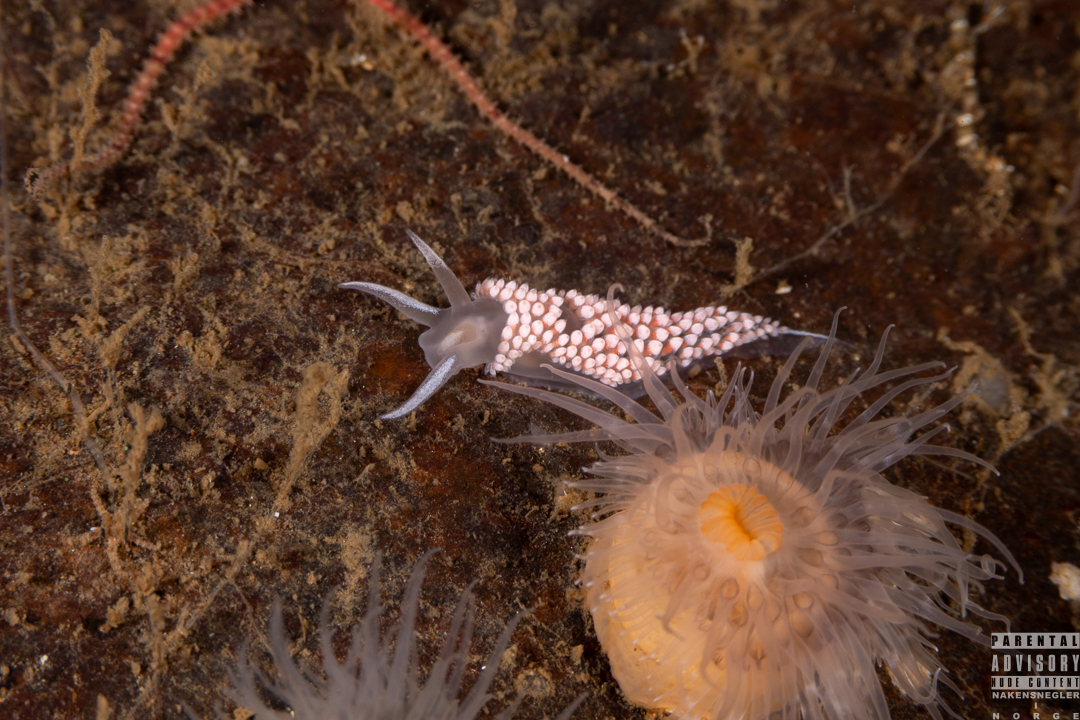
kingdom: Animalia
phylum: Mollusca
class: Gastropoda
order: Nudibranchia
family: Coryphellidae
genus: Coryphella
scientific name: Coryphella verrucosa
